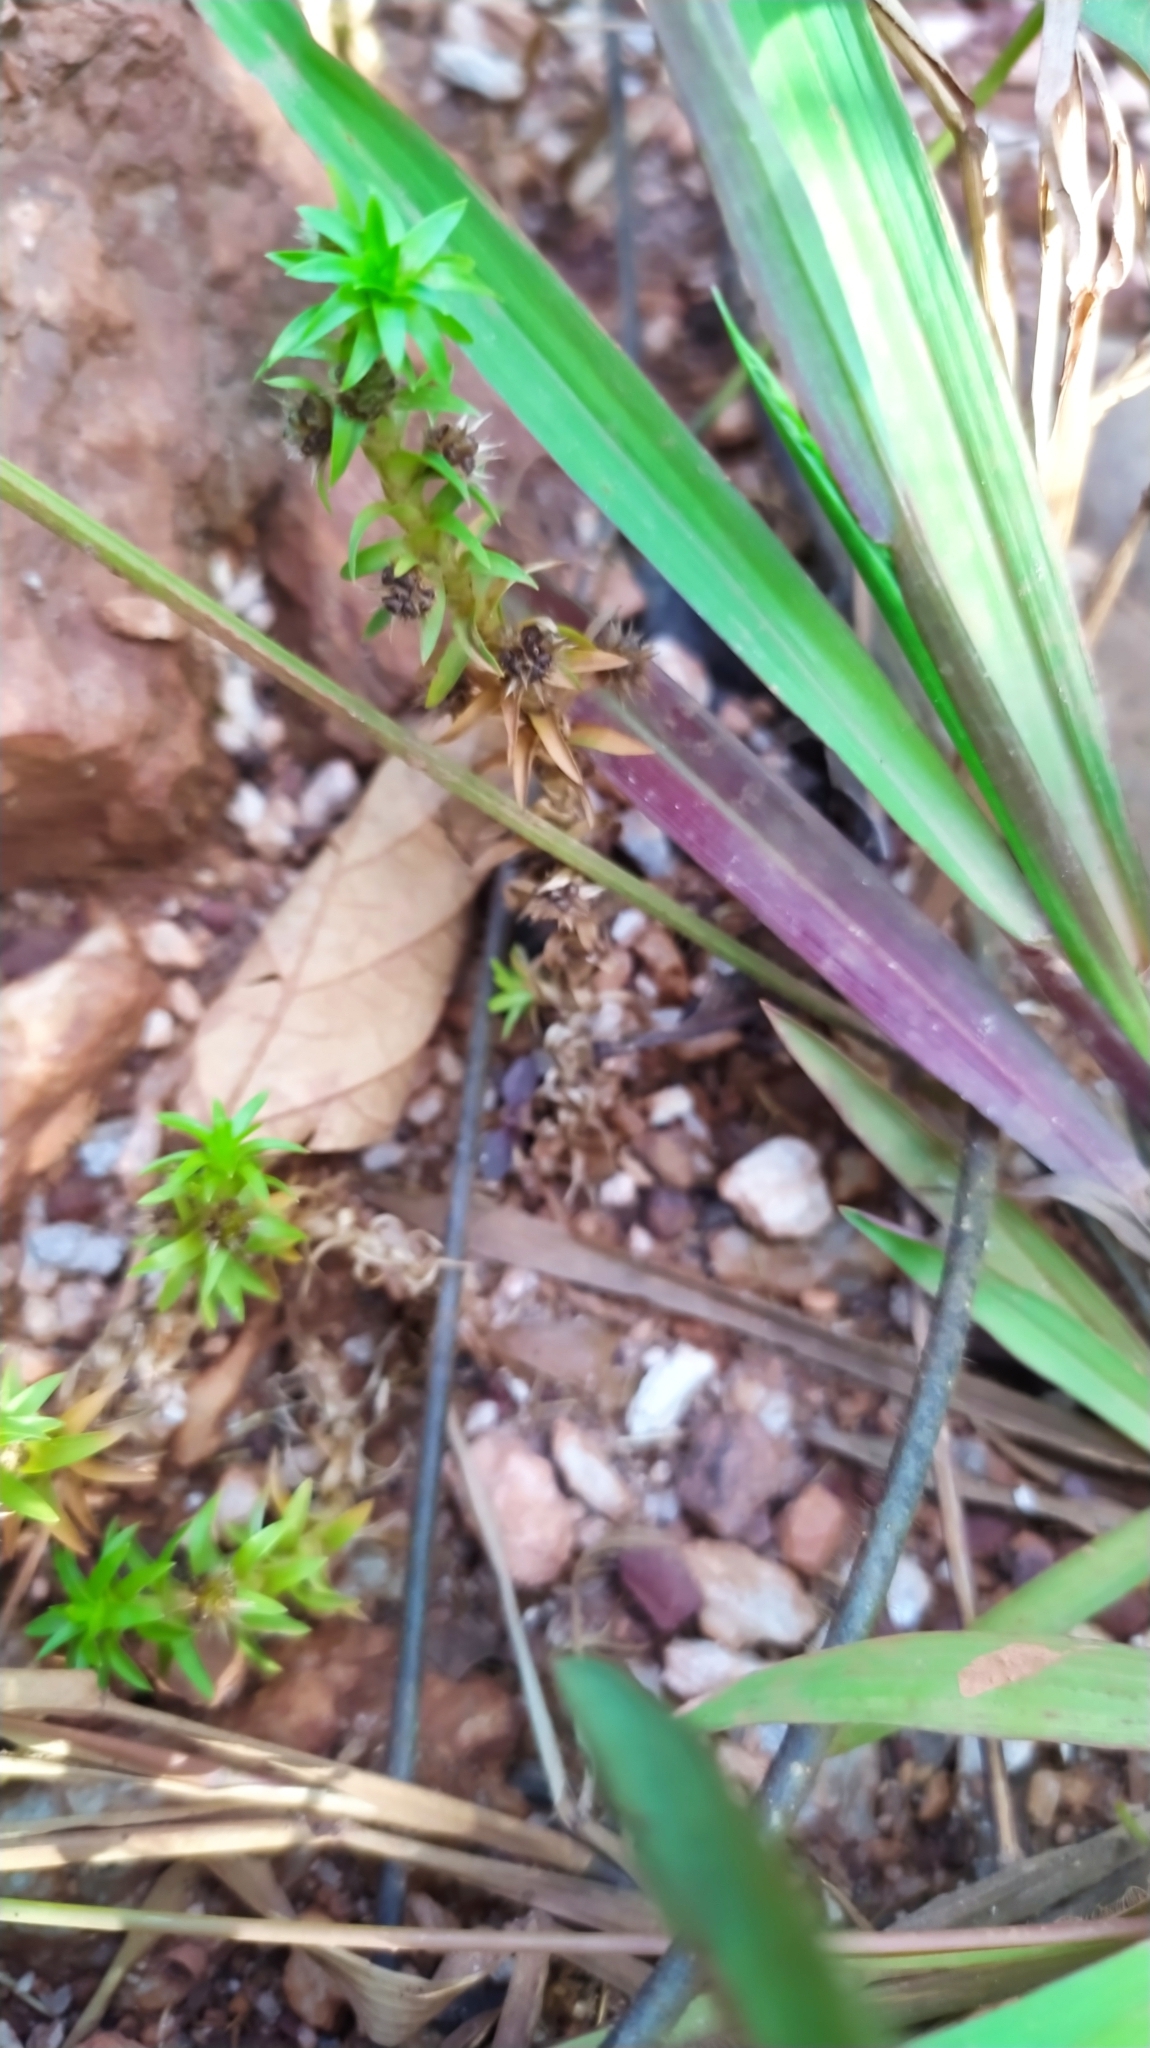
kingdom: Plantae
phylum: Tracheophyta
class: Liliopsida
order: Poales
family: Eriocaulaceae
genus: Paepalanthus
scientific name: Paepalanthus fluviatilis
